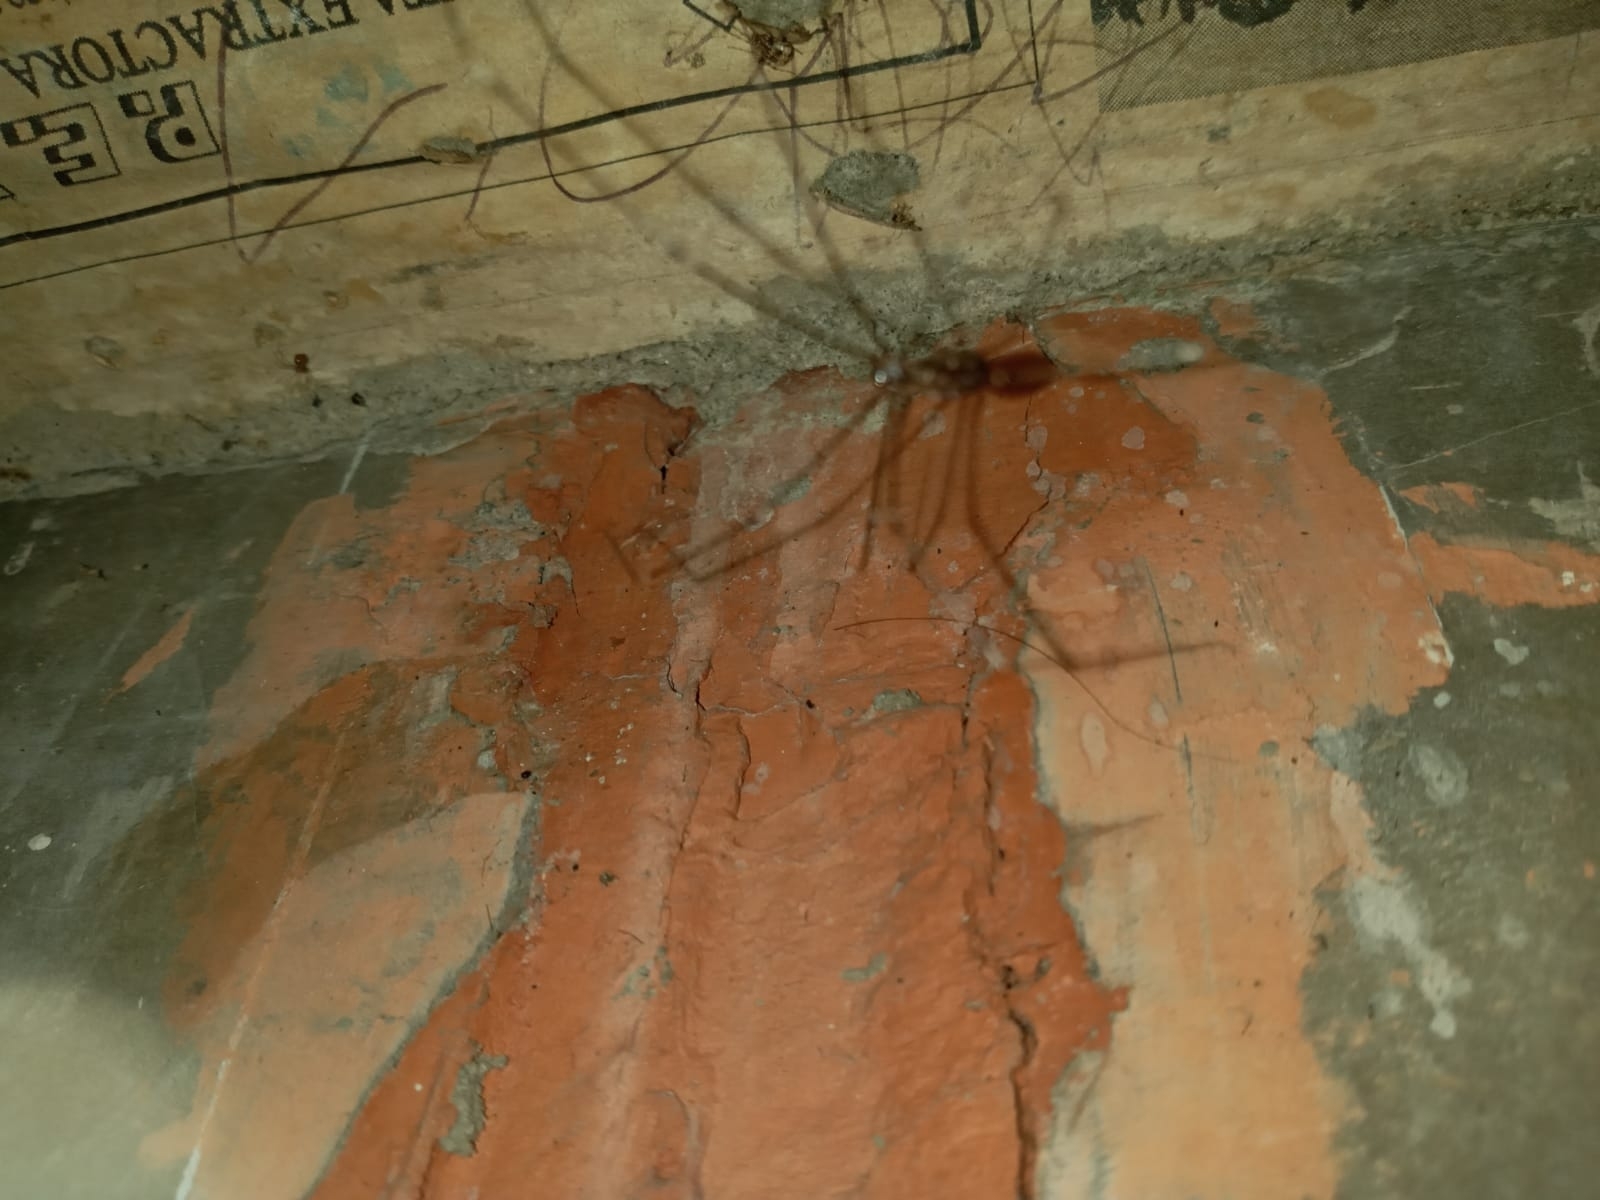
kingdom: Animalia
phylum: Arthropoda
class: Arachnida
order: Araneae
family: Pholcidae
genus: Smeringopus
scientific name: Smeringopus pallidus
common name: Cellar spider
